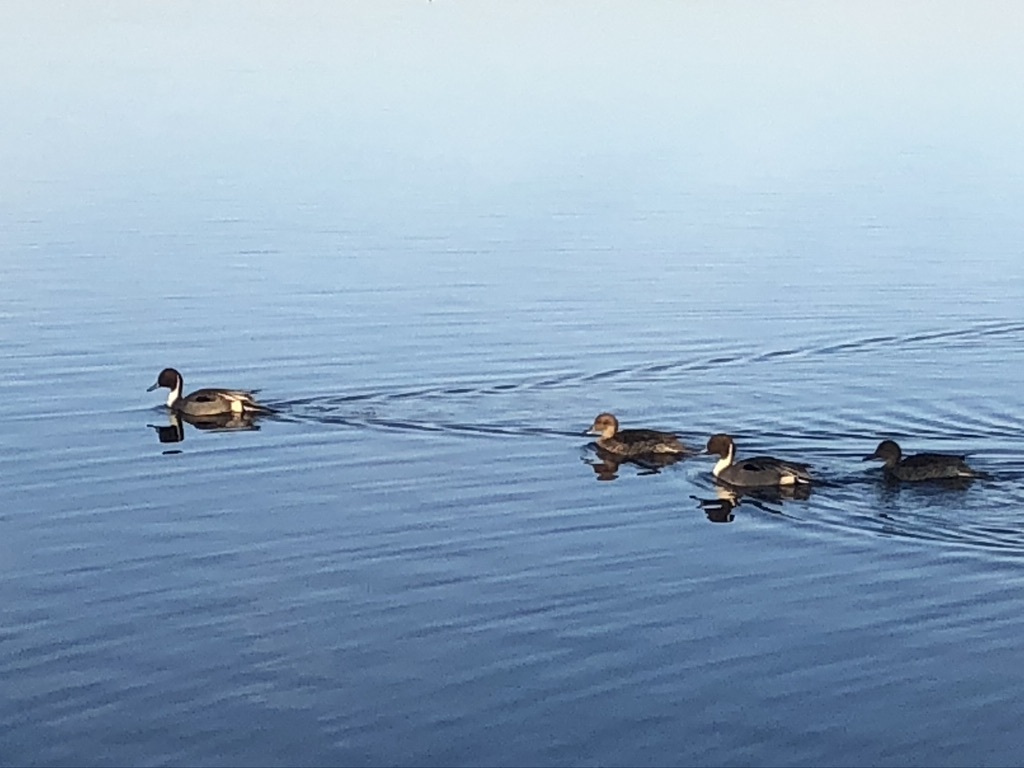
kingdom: Animalia
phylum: Chordata
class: Aves
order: Anseriformes
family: Anatidae
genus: Anas
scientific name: Anas acuta
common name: Northern pintail
